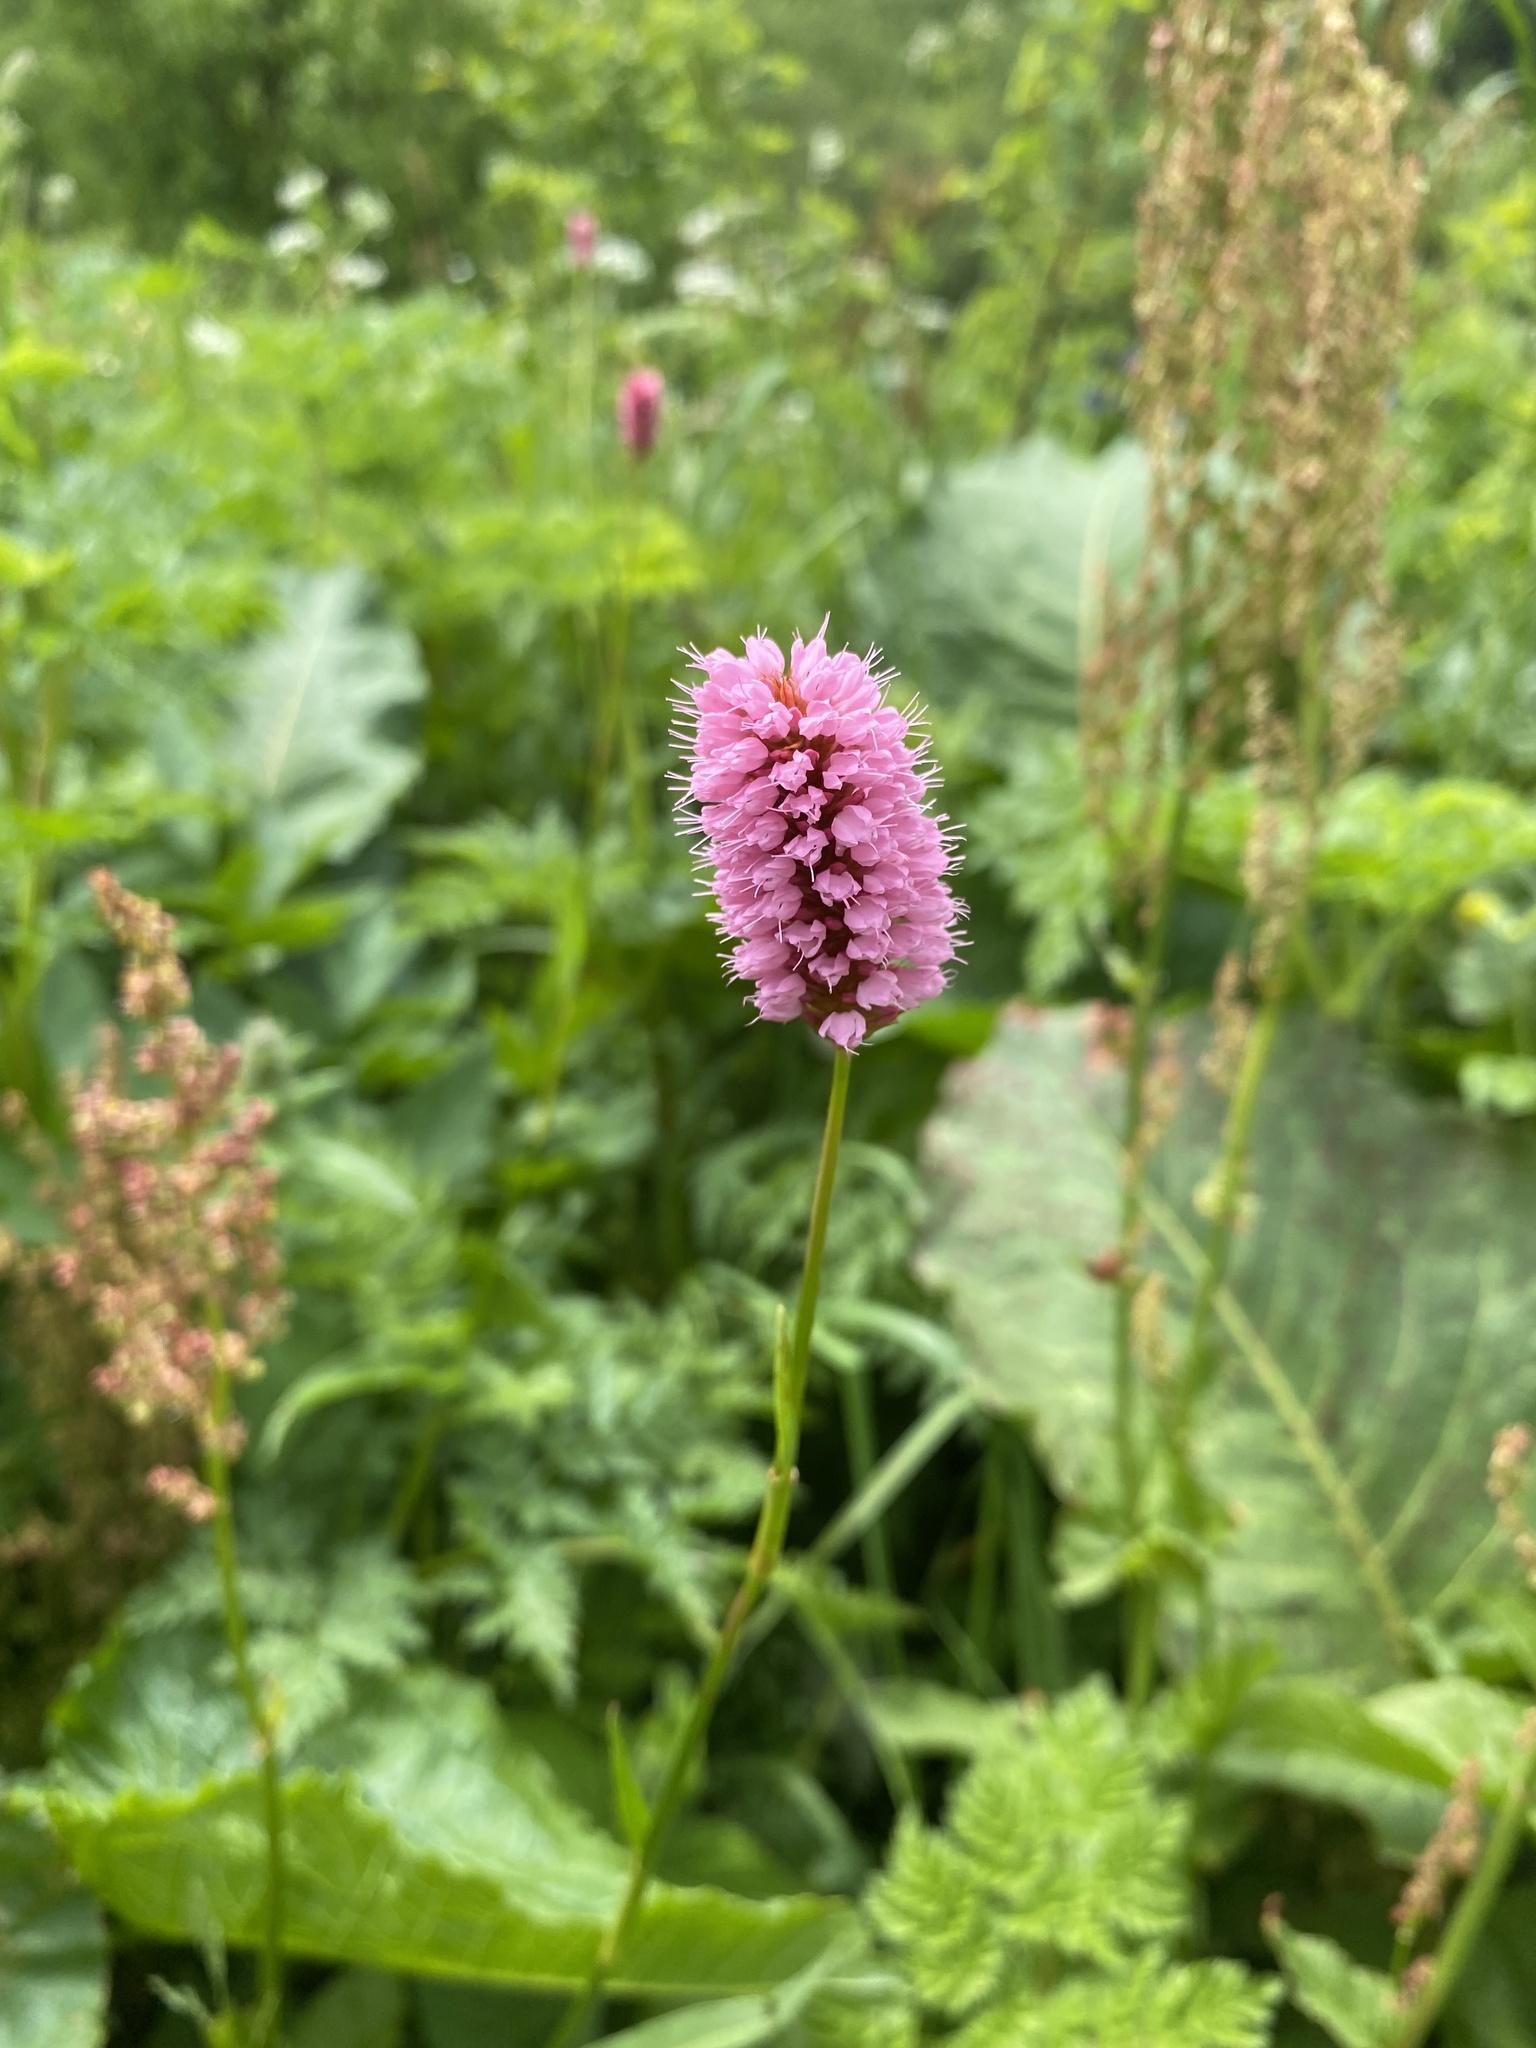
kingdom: Plantae
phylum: Tracheophyta
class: Magnoliopsida
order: Caryophyllales
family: Polygonaceae
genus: Bistorta
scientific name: Bistorta carnea
